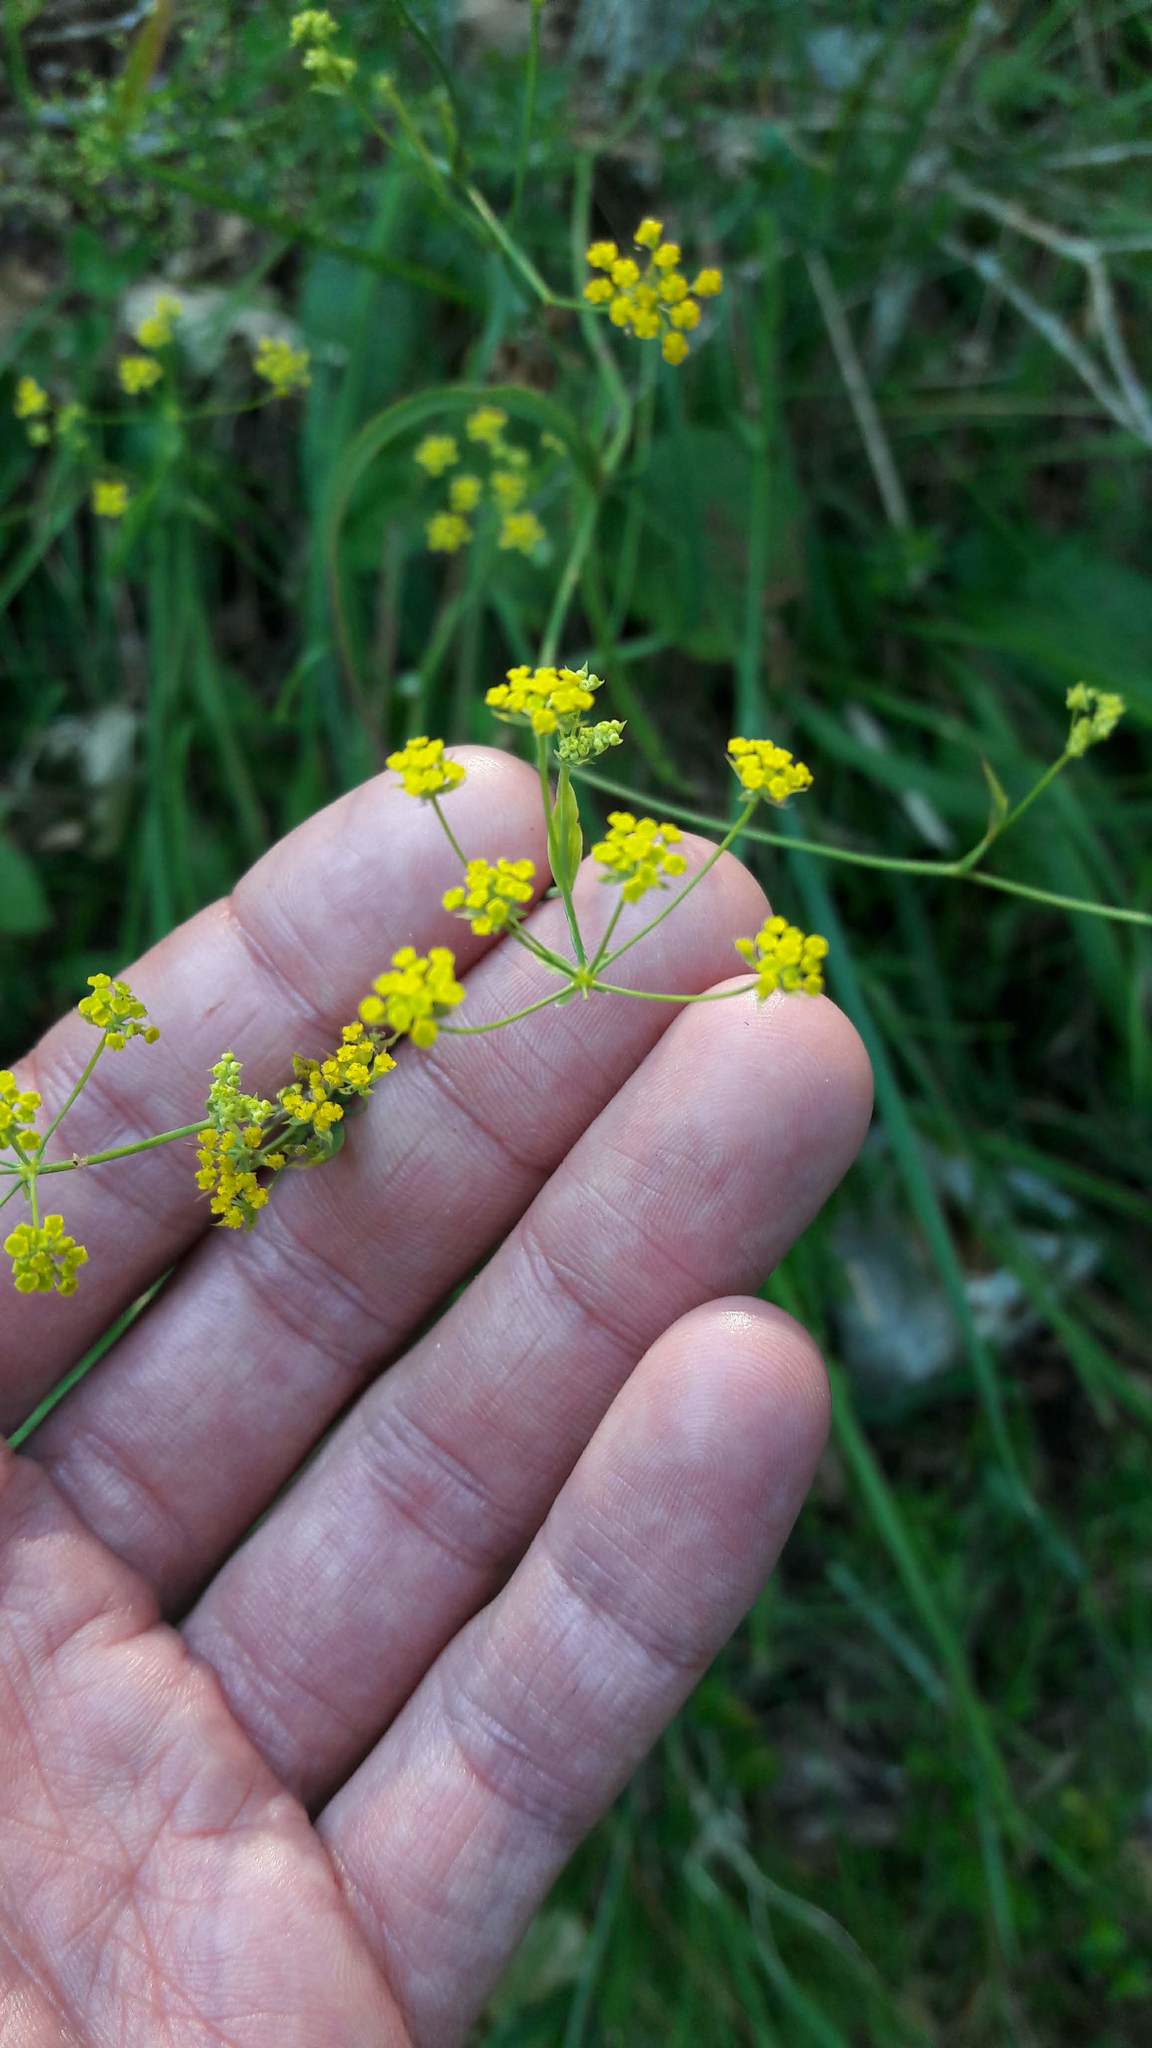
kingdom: Plantae
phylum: Tracheophyta
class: Magnoliopsida
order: Apiales
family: Apiaceae
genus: Bupleurum
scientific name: Bupleurum falcatum
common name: Sickle-leaved hare's-ear
